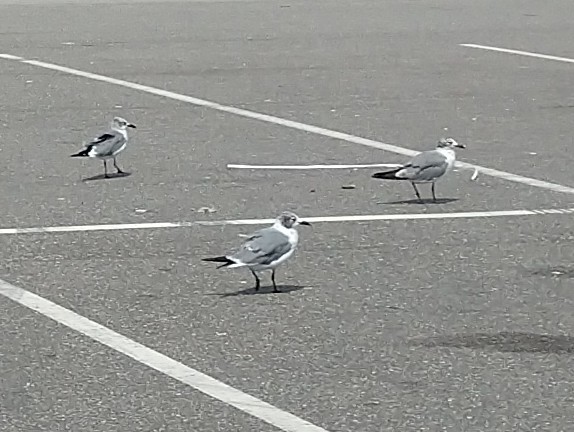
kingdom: Animalia
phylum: Chordata
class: Aves
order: Charadriiformes
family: Laridae
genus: Leucophaeus
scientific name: Leucophaeus atricilla
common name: Laughing gull
